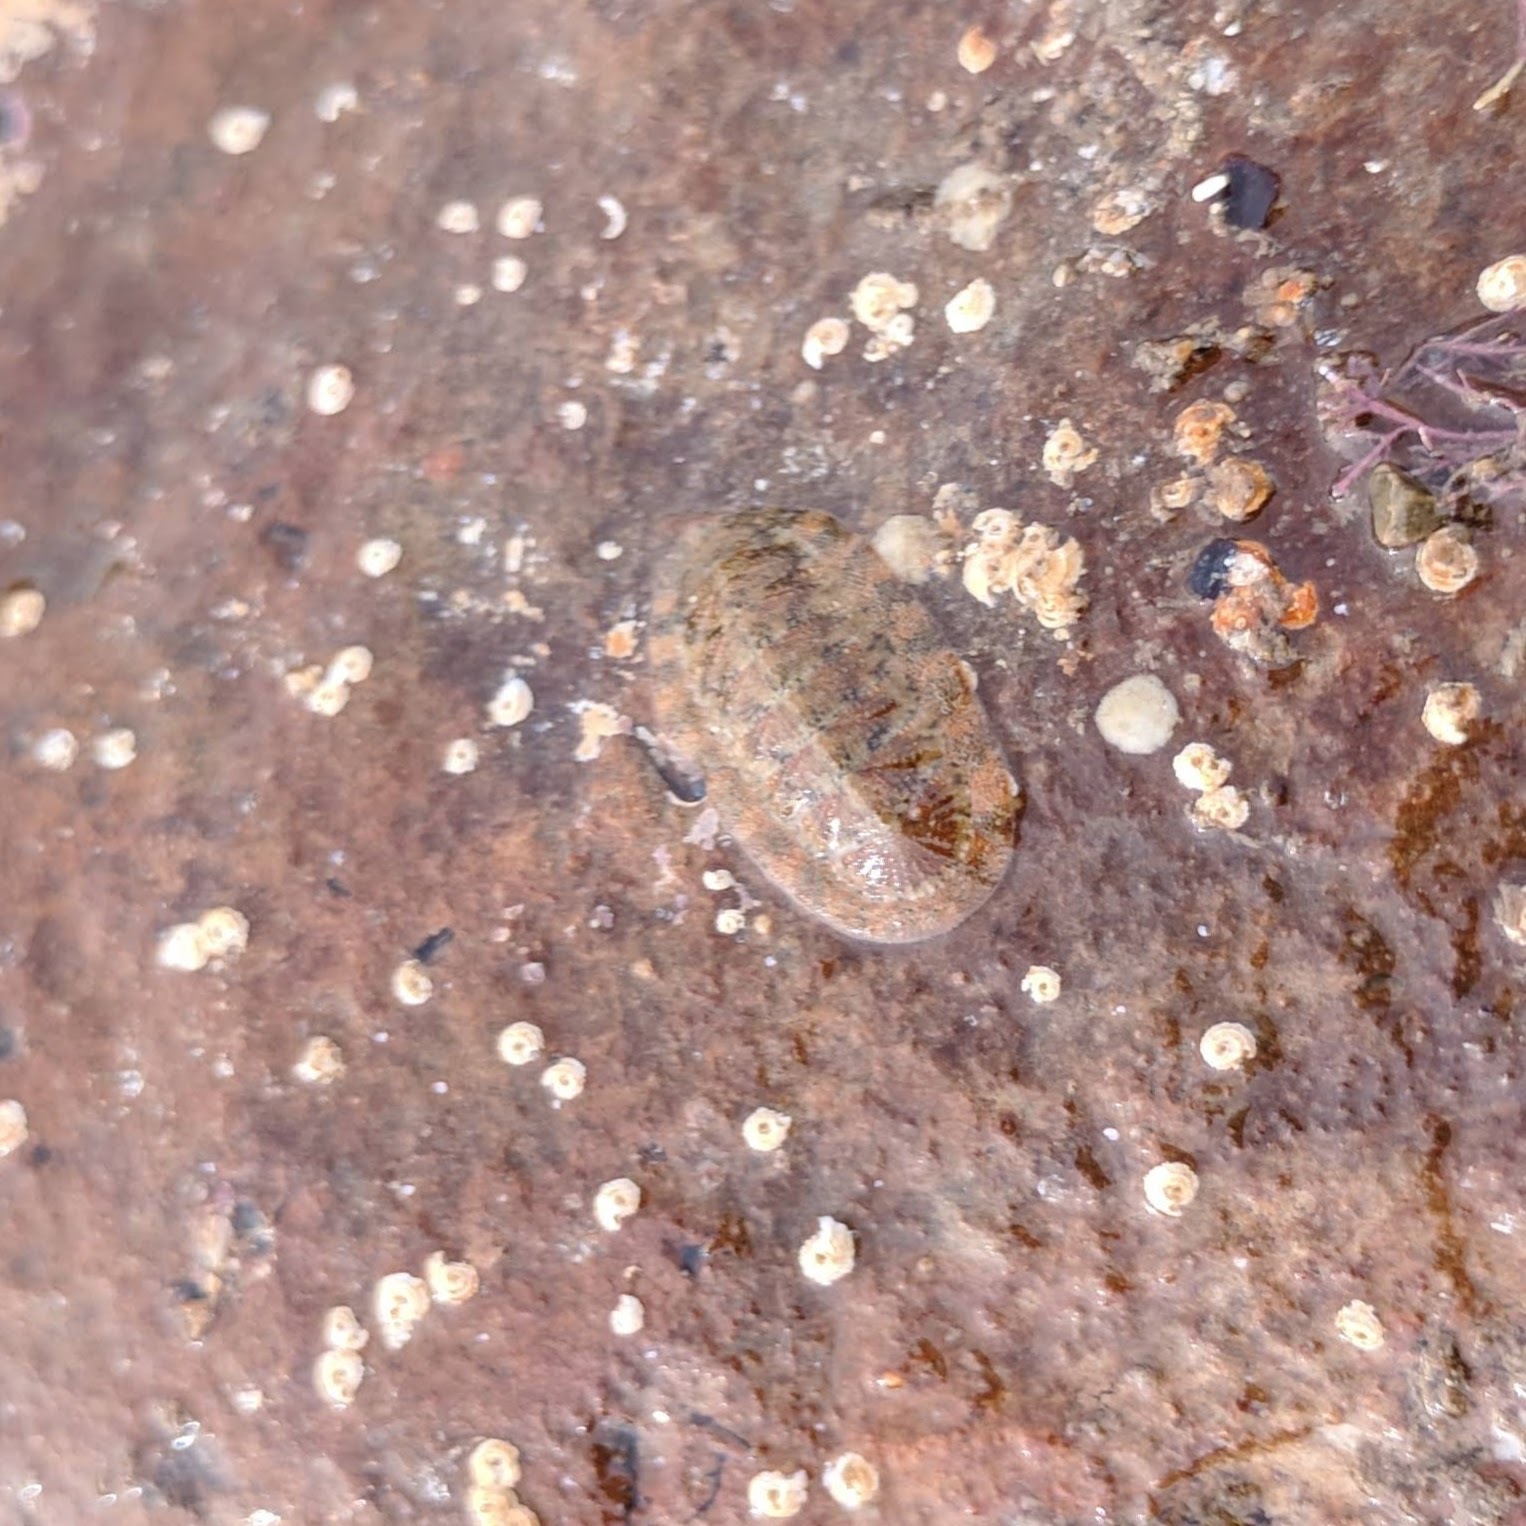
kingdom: Animalia
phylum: Mollusca
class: Polyplacophora
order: Chitonida
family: Ischnochitonidae
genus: Lepidozona
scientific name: Lepidozona pectinulata
